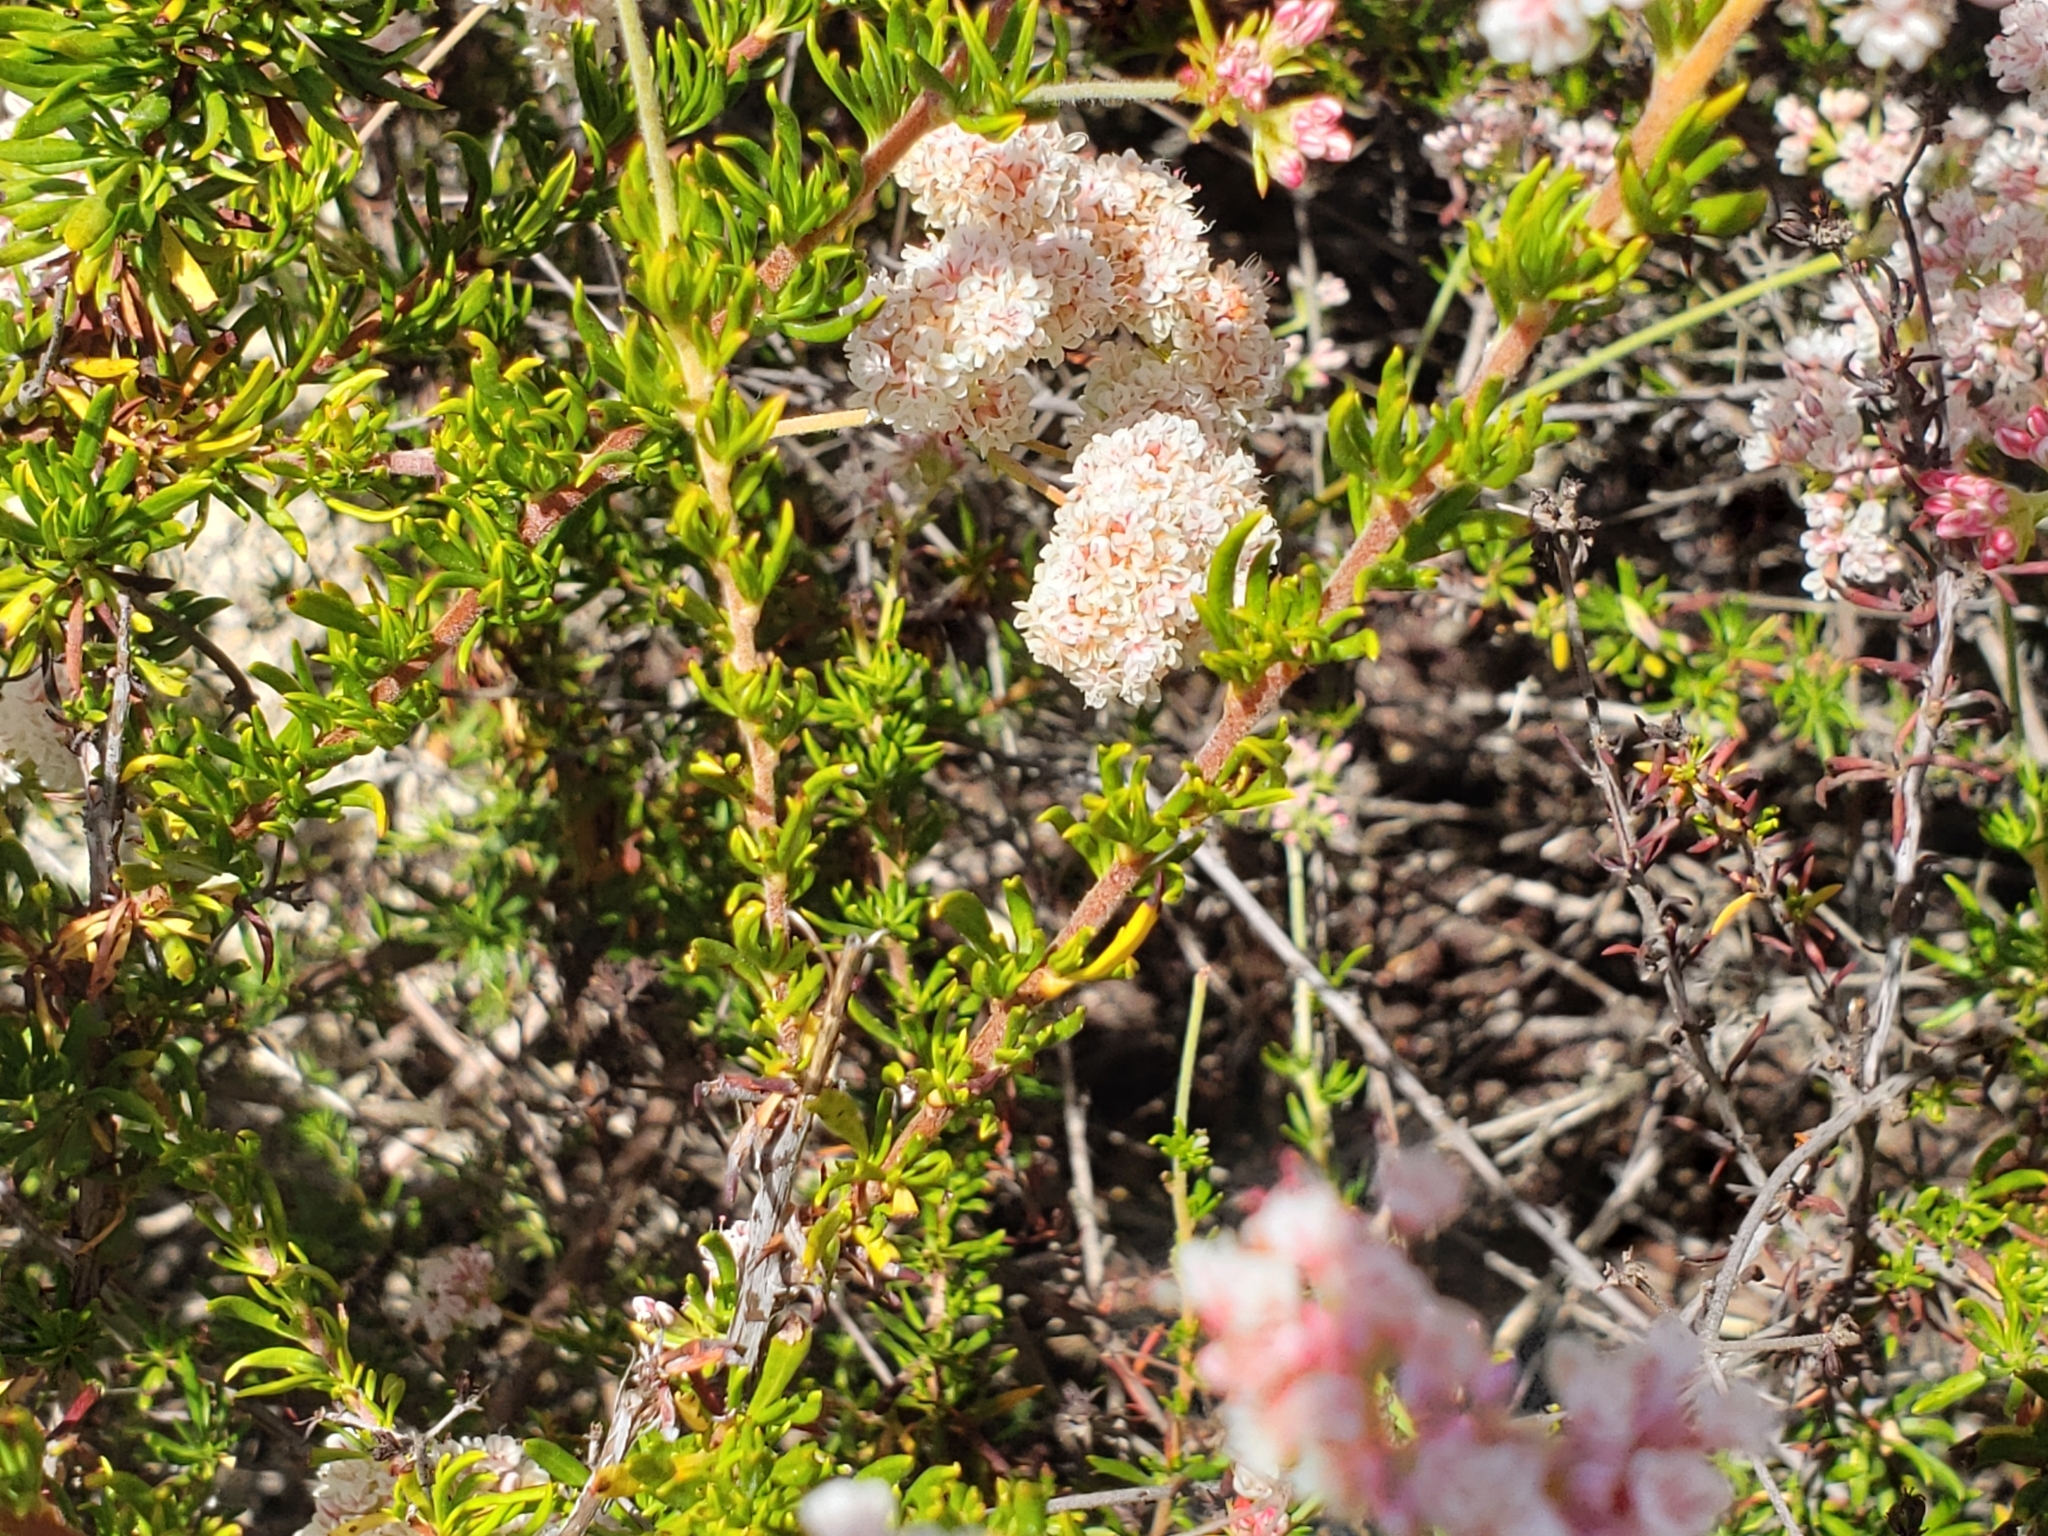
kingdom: Plantae
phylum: Tracheophyta
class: Magnoliopsida
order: Caryophyllales
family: Polygonaceae
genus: Eriogonum
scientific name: Eriogonum fasciculatum
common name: California wild buckwheat
